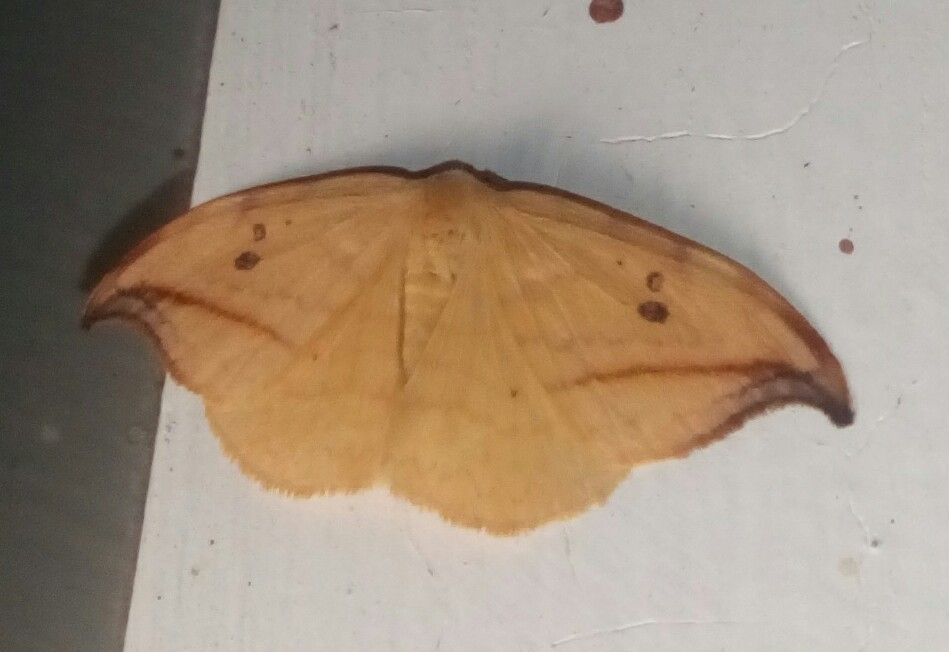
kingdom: Animalia
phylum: Arthropoda
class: Insecta
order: Lepidoptera
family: Drepanidae
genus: Drepana
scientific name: Drepana arcuata
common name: Arched hooktip moth
